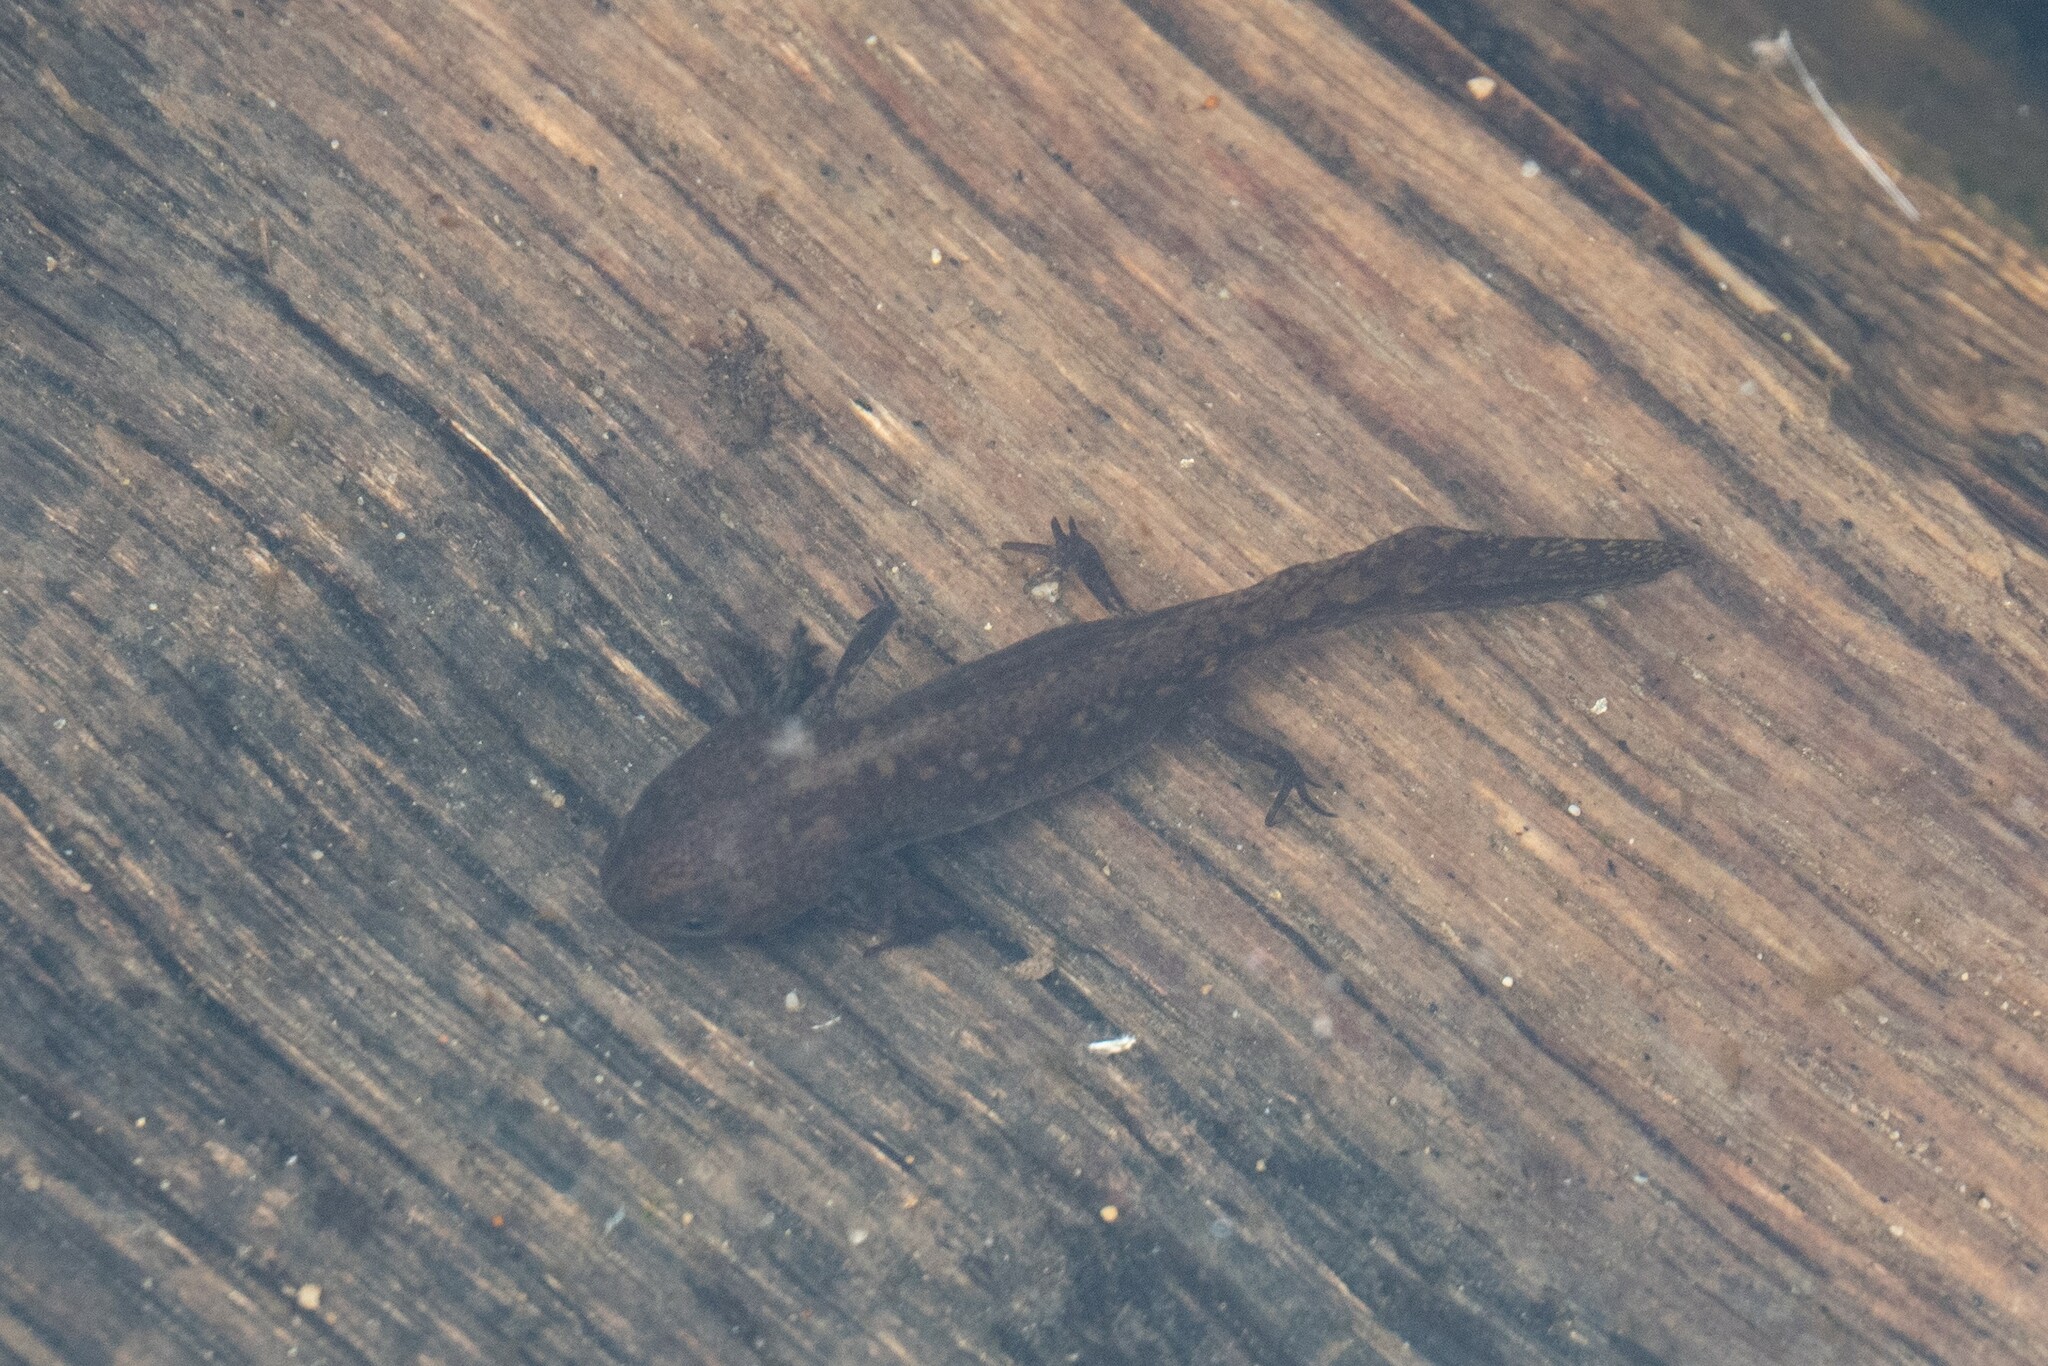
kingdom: Animalia
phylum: Chordata
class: Amphibia
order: Caudata
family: Salamandridae
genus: Ichthyosaura
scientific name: Ichthyosaura alpestris
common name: Alpine newt
